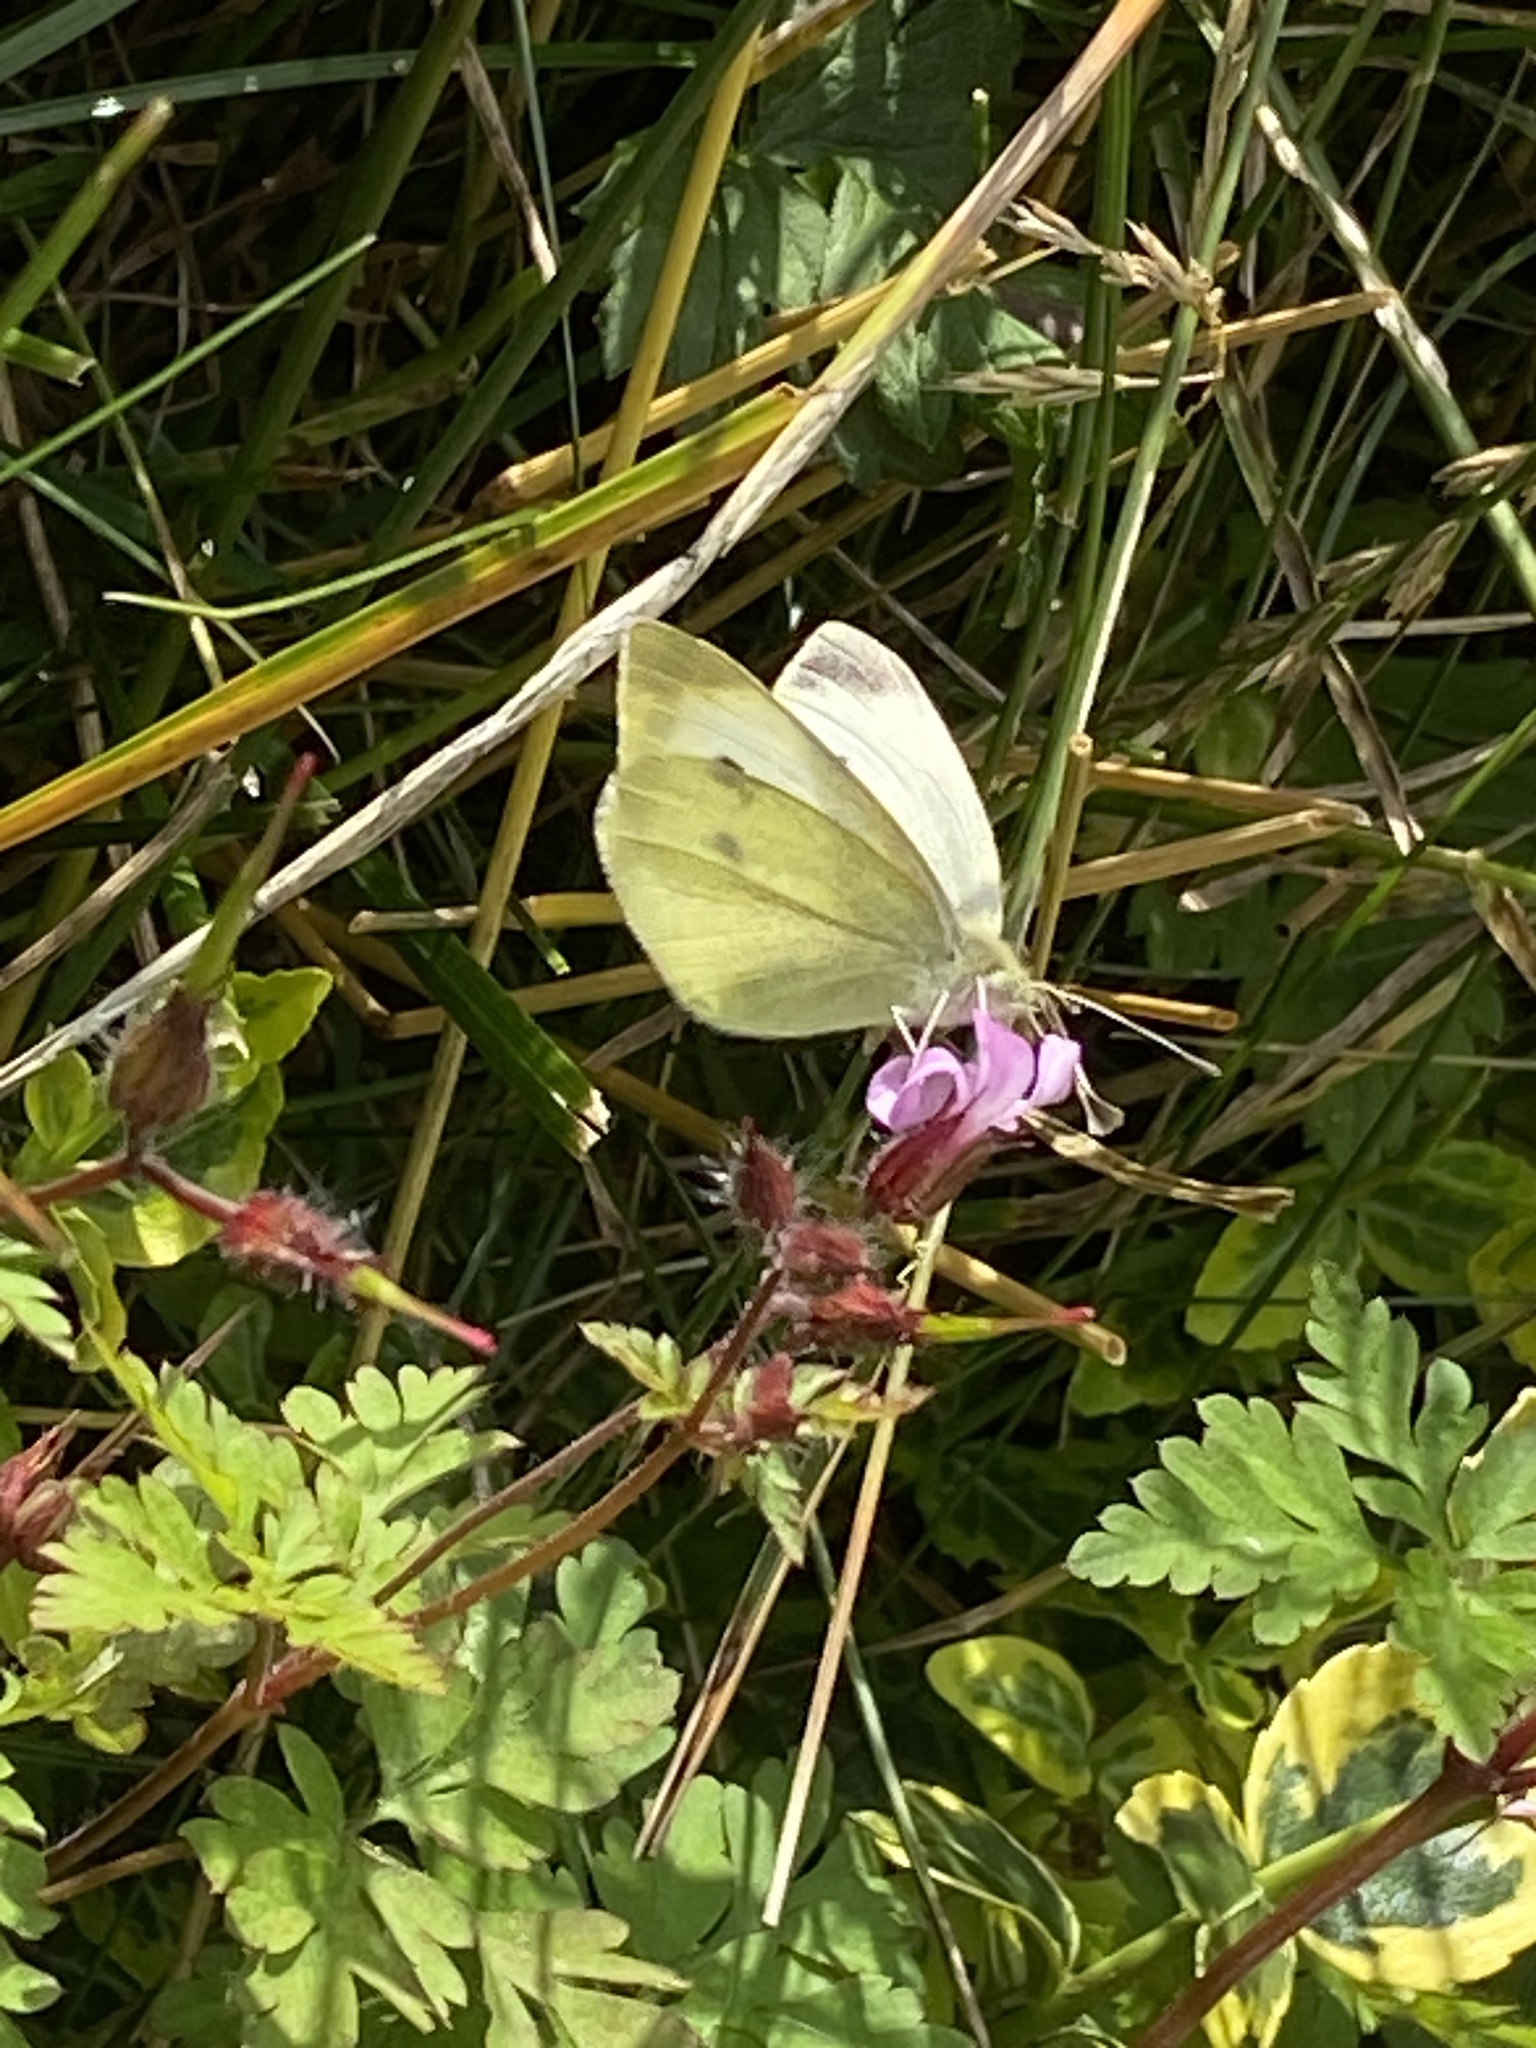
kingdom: Animalia
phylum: Arthropoda
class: Insecta
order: Lepidoptera
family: Pieridae
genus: Pieris
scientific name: Pieris rapae
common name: Small white
